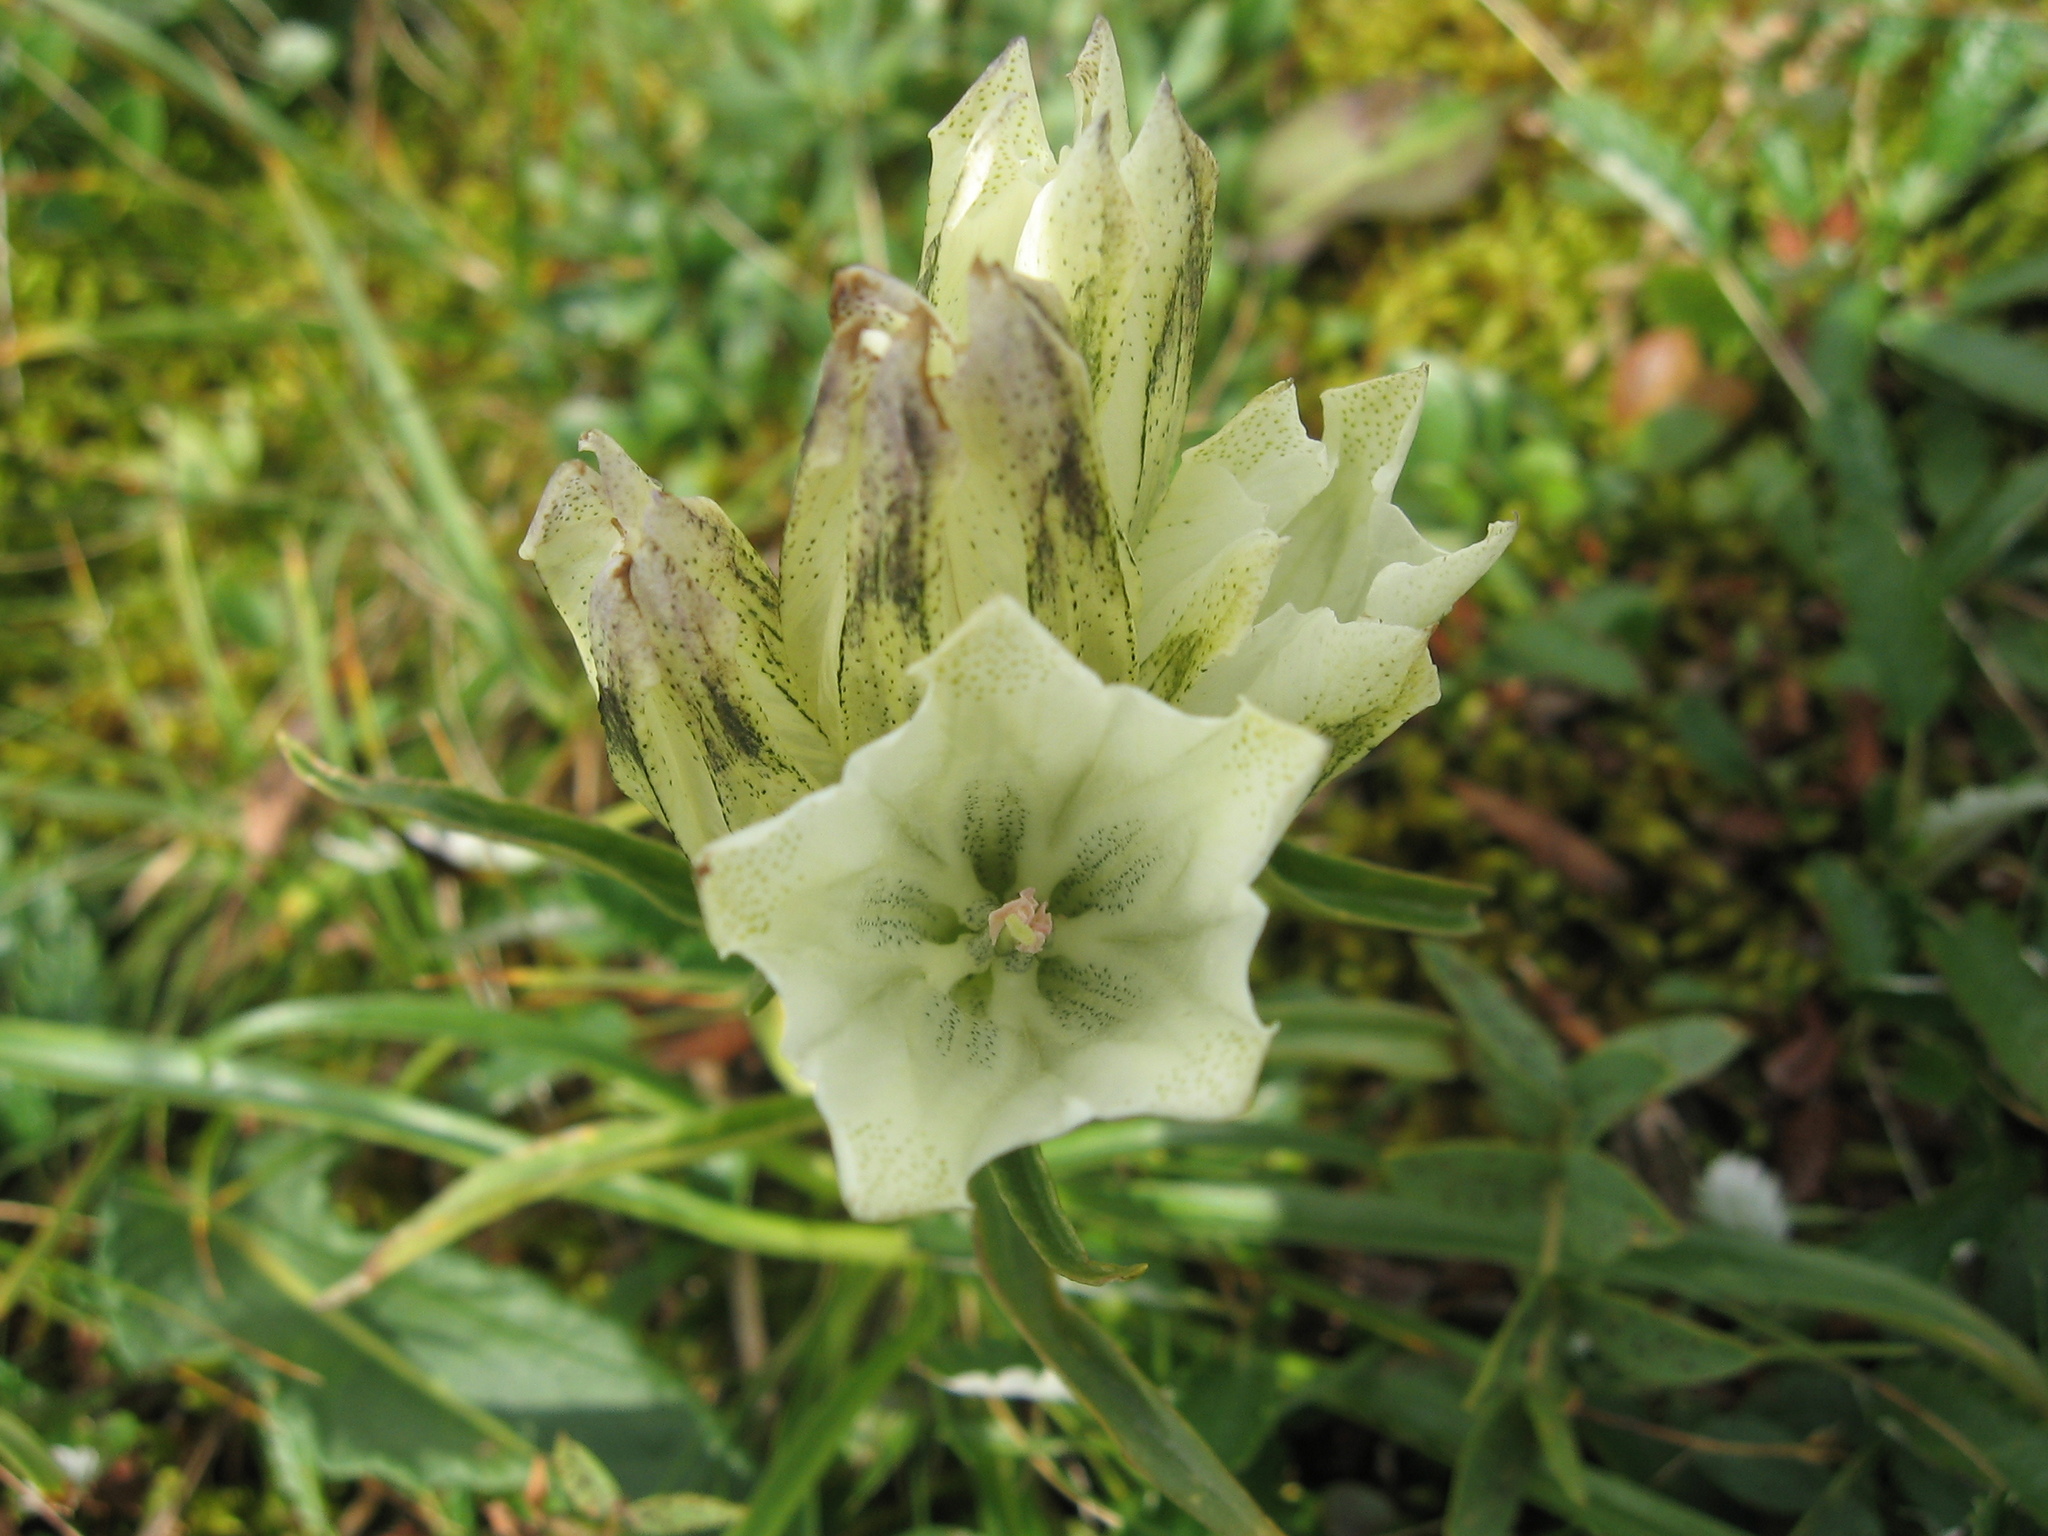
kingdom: Plantae
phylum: Tracheophyta
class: Magnoliopsida
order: Gentianales
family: Gentianaceae
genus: Gentiana
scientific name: Gentiana algida
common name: Arctic gentian
